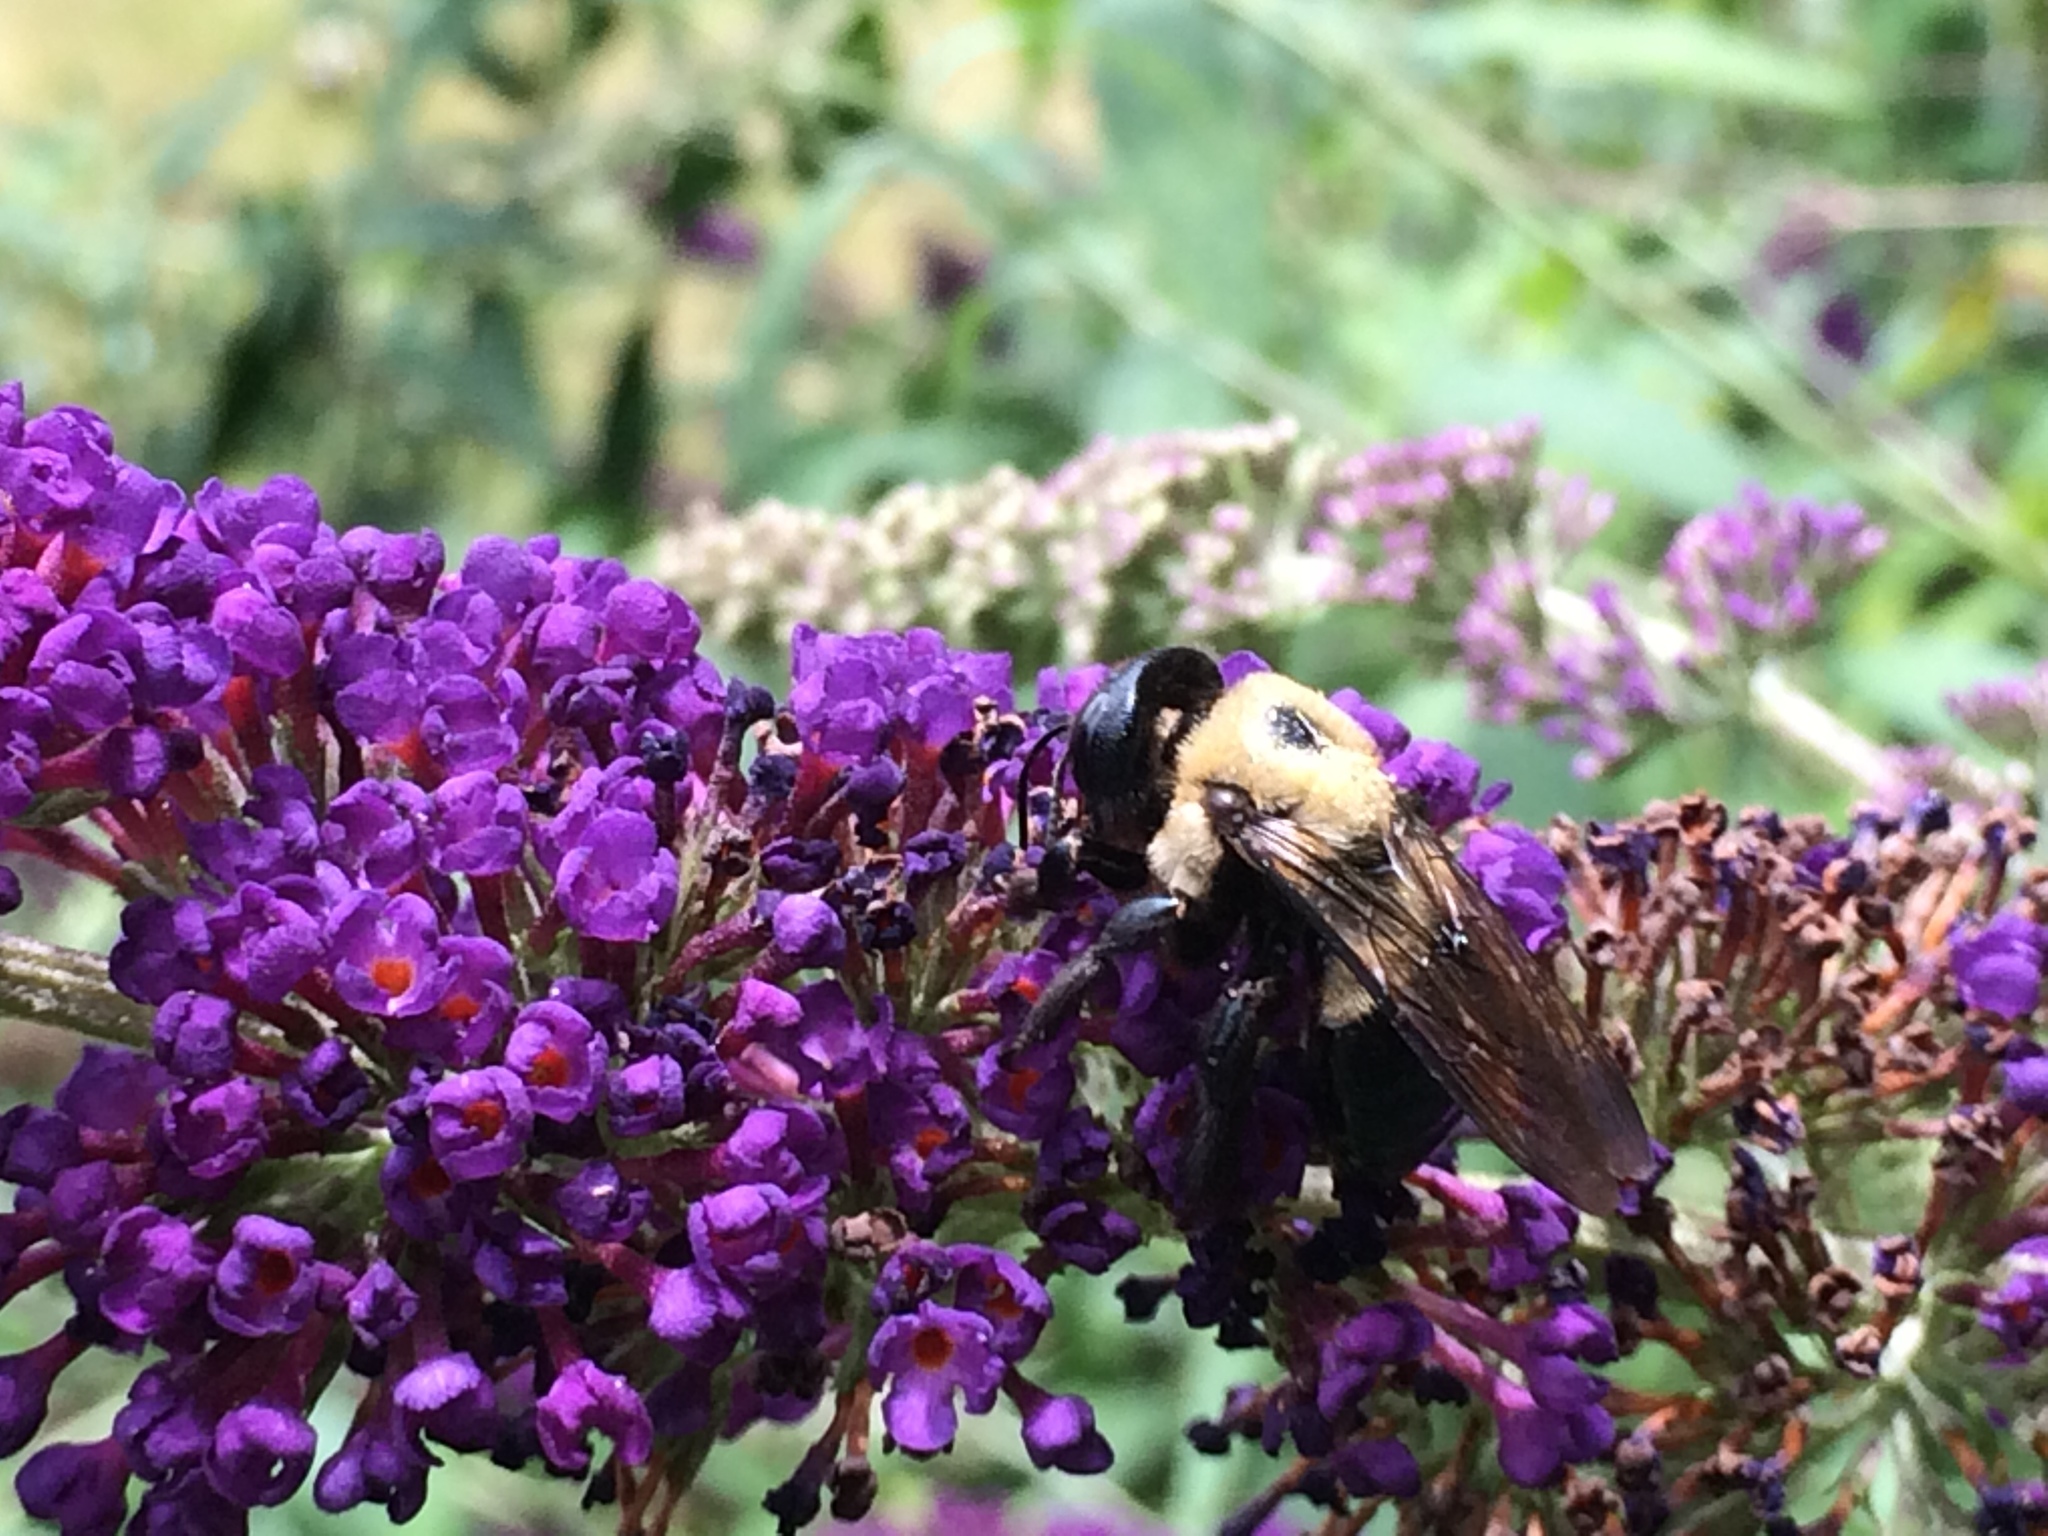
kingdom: Animalia
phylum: Arthropoda
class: Insecta
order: Hymenoptera
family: Apidae
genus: Xylocopa
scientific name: Xylocopa virginica
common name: Carpenter bee
